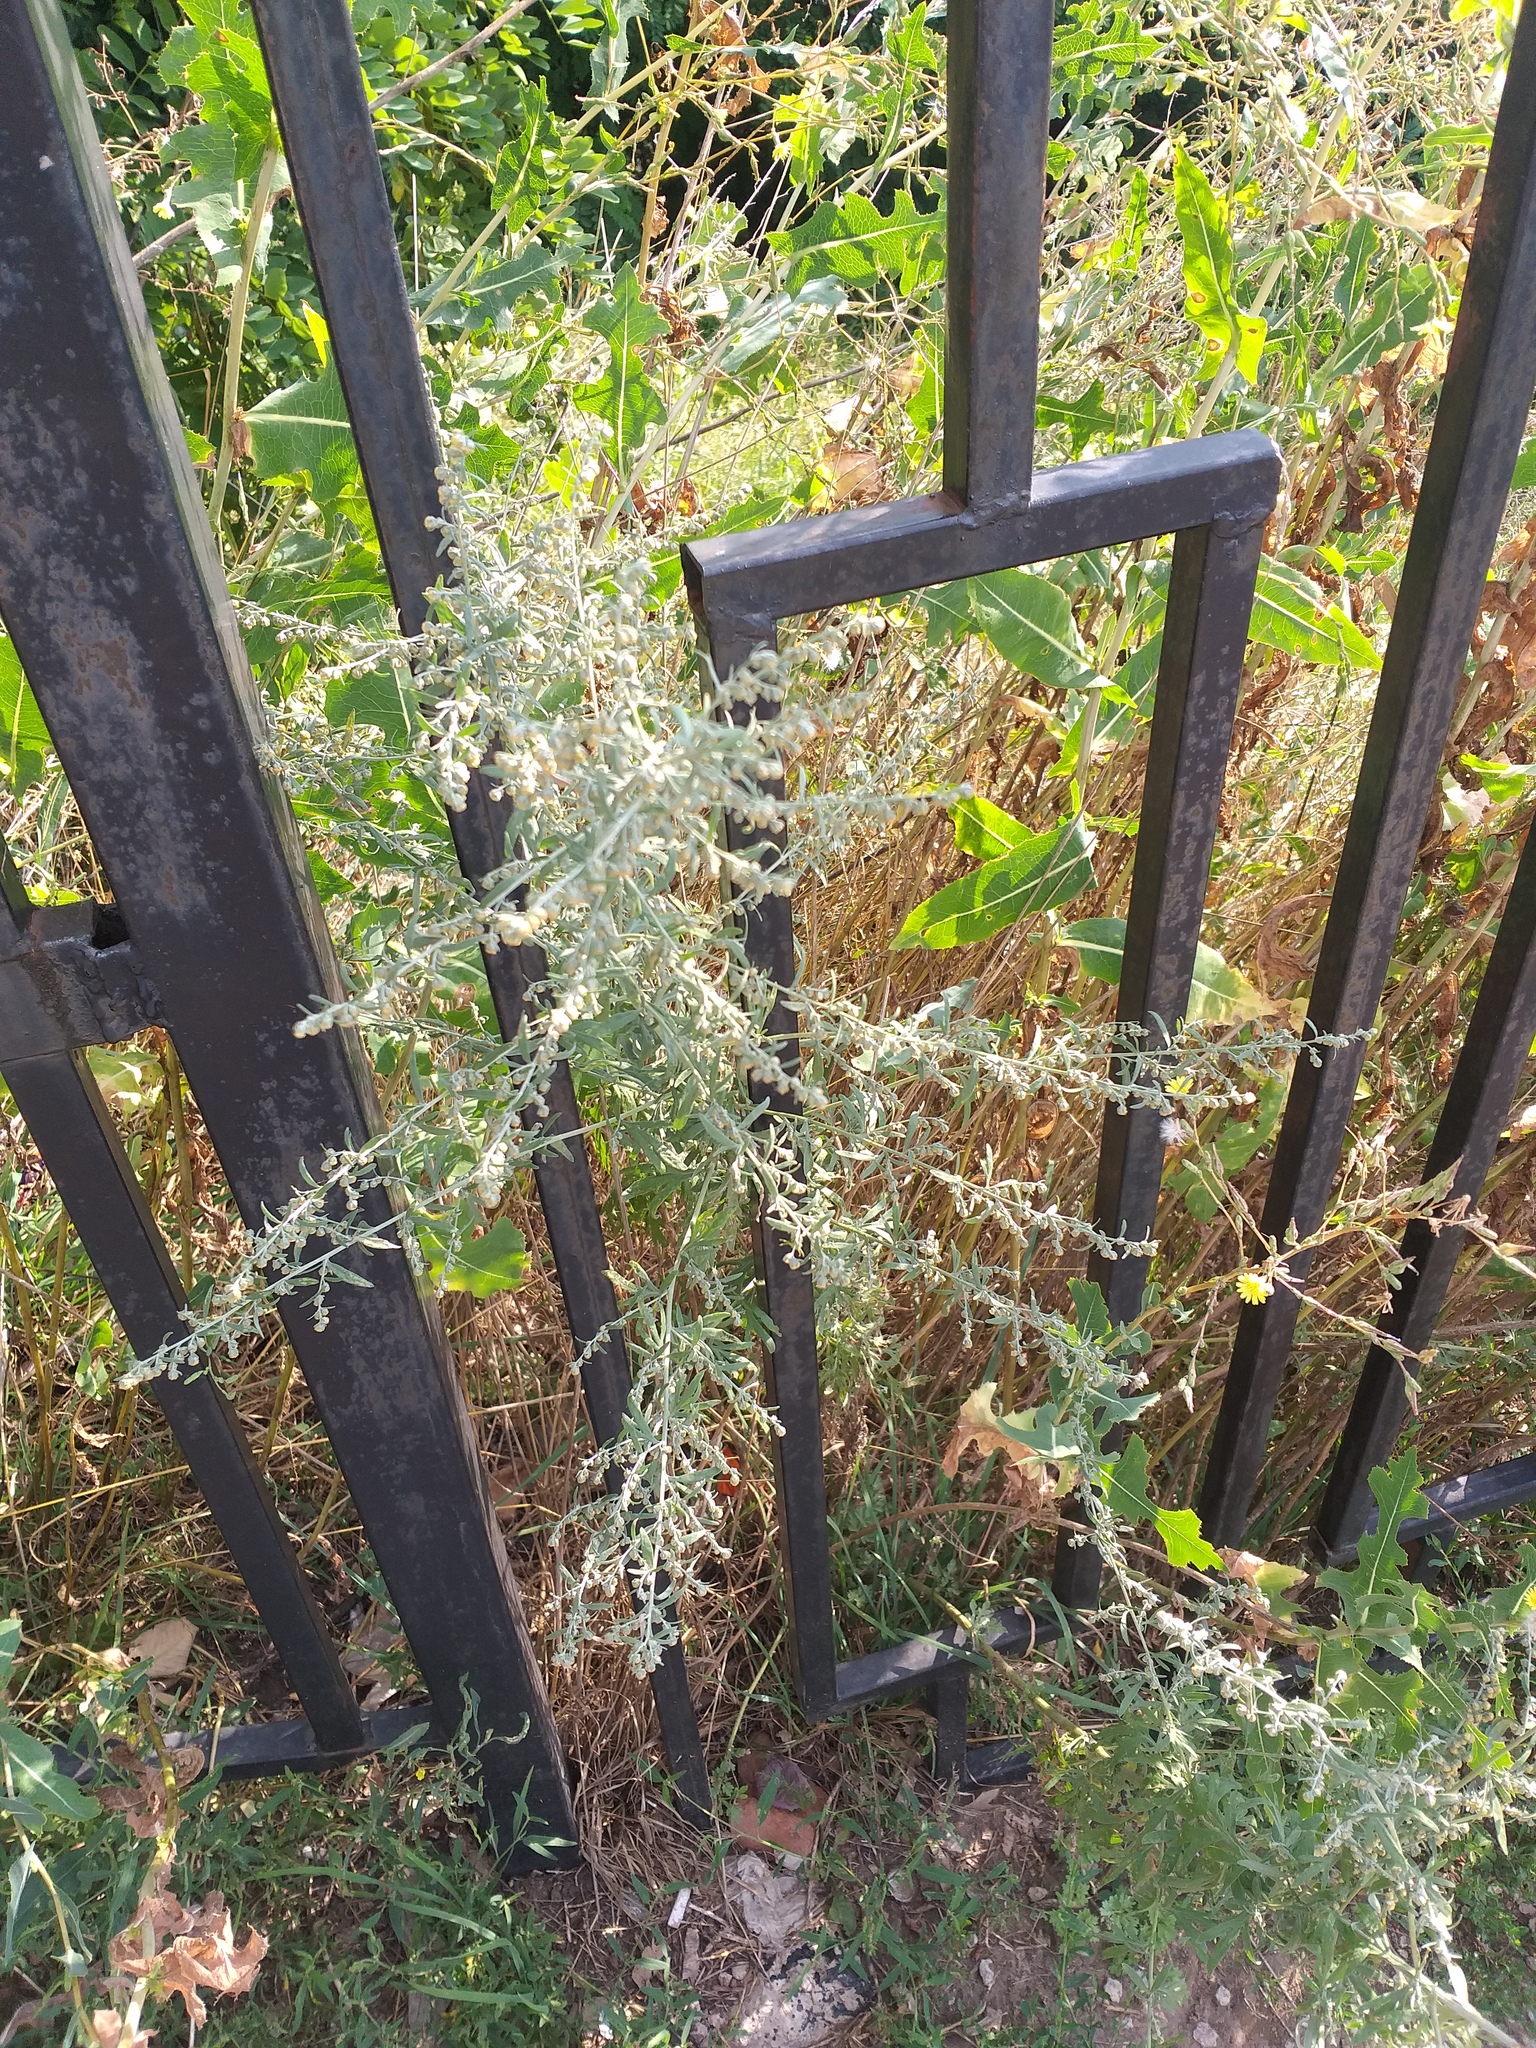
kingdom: Plantae
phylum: Tracheophyta
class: Magnoliopsida
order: Asterales
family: Asteraceae
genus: Artemisia
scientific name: Artemisia absinthium
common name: Wormwood
